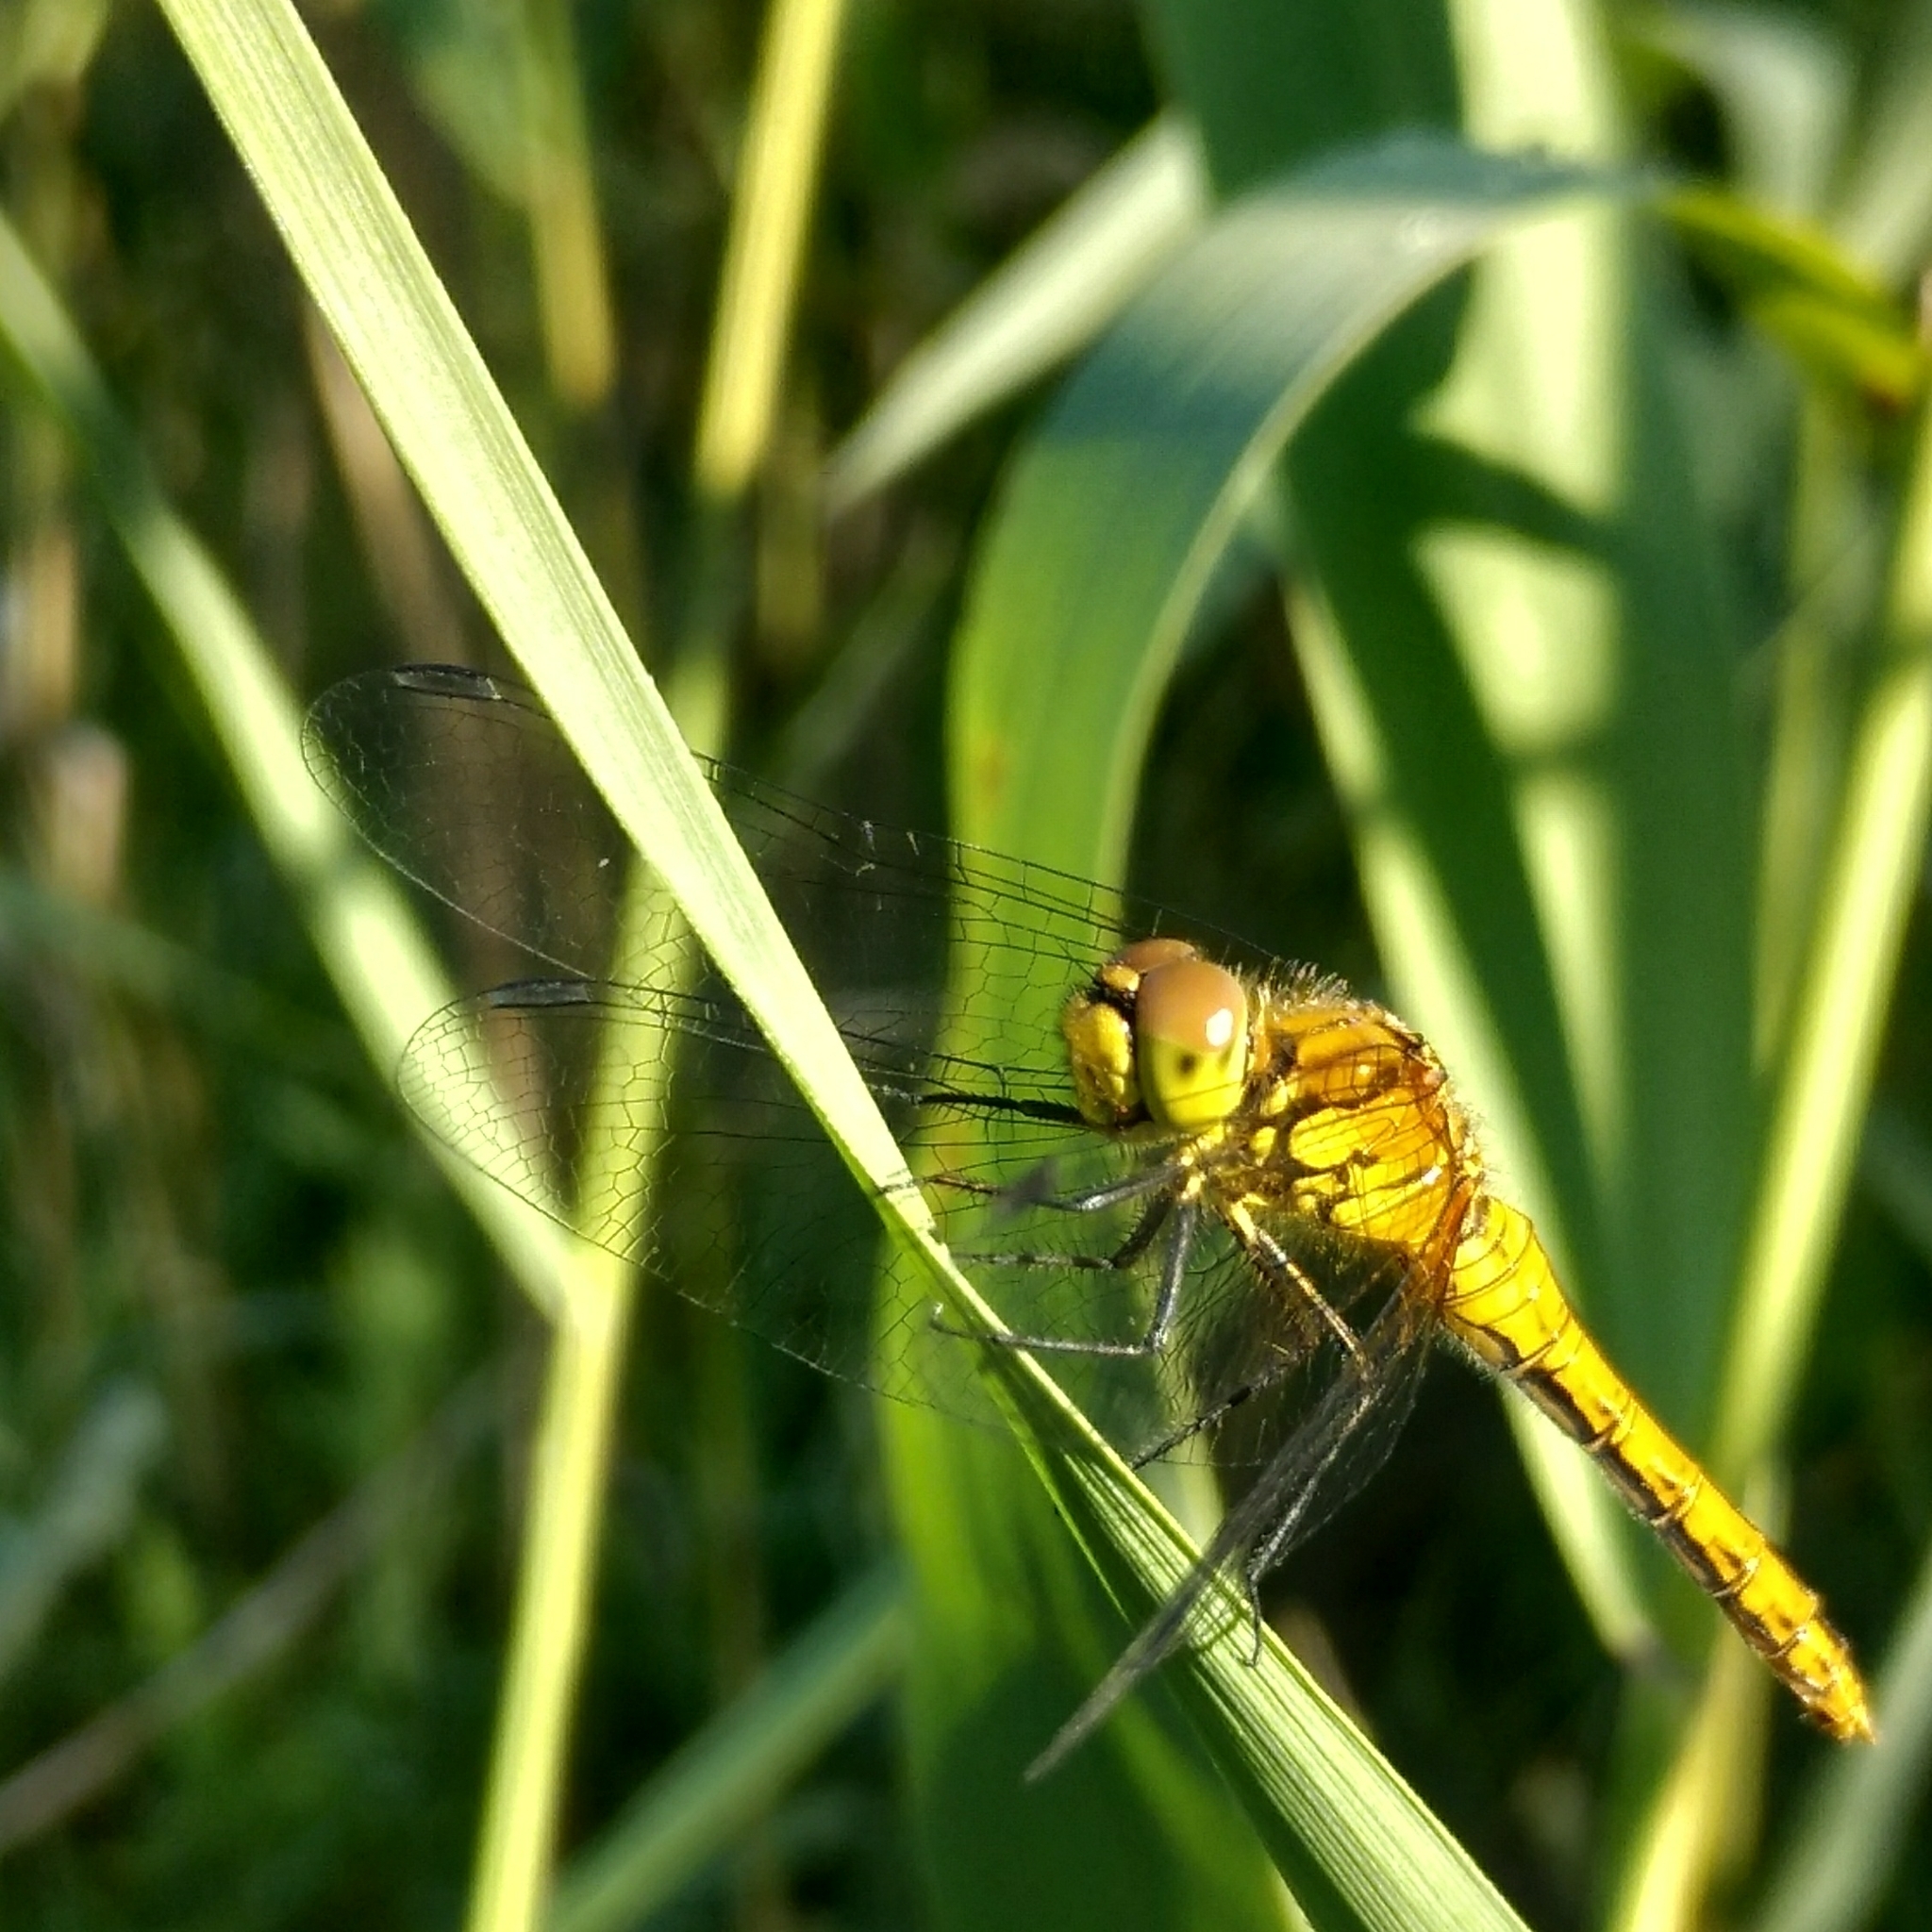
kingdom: Animalia
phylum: Arthropoda
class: Insecta
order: Odonata
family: Libellulidae
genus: Sympetrum
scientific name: Sympetrum sanguineum
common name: Ruddy darter
